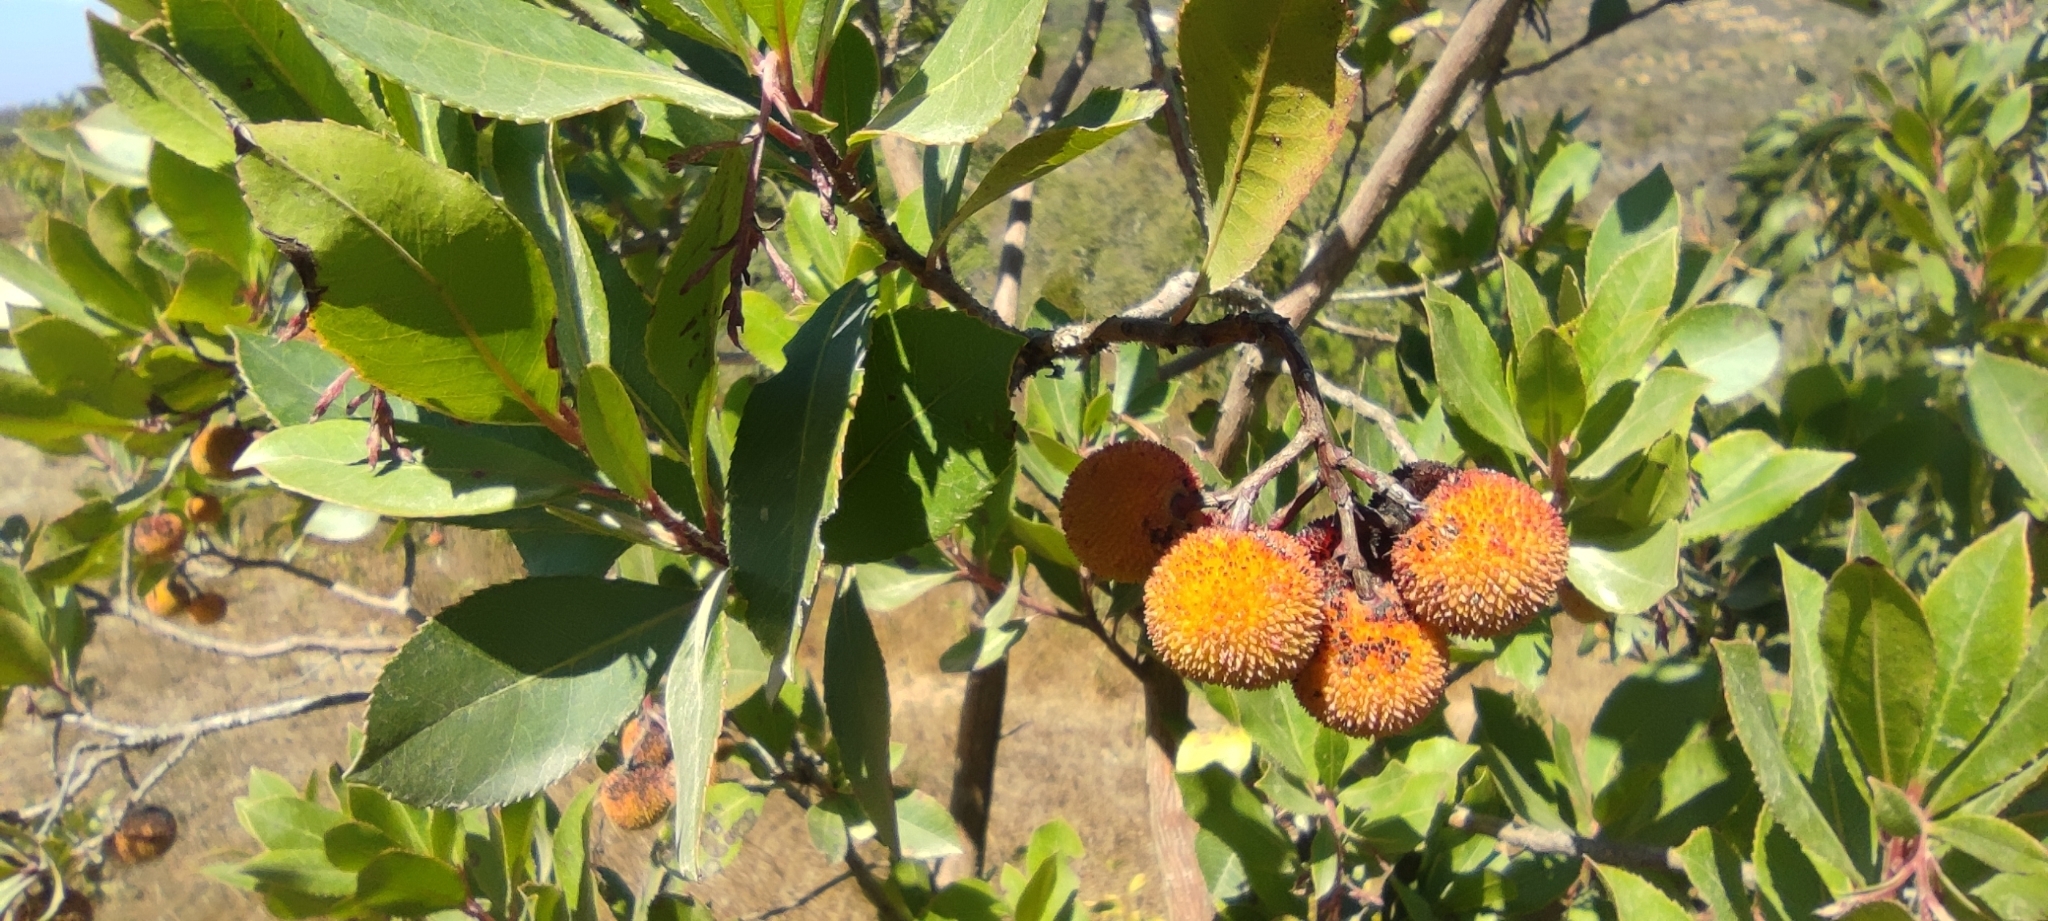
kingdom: Plantae
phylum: Tracheophyta
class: Magnoliopsida
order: Ericales
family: Ericaceae
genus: Arbutus
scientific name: Arbutus unedo
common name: Strawberry-tree
